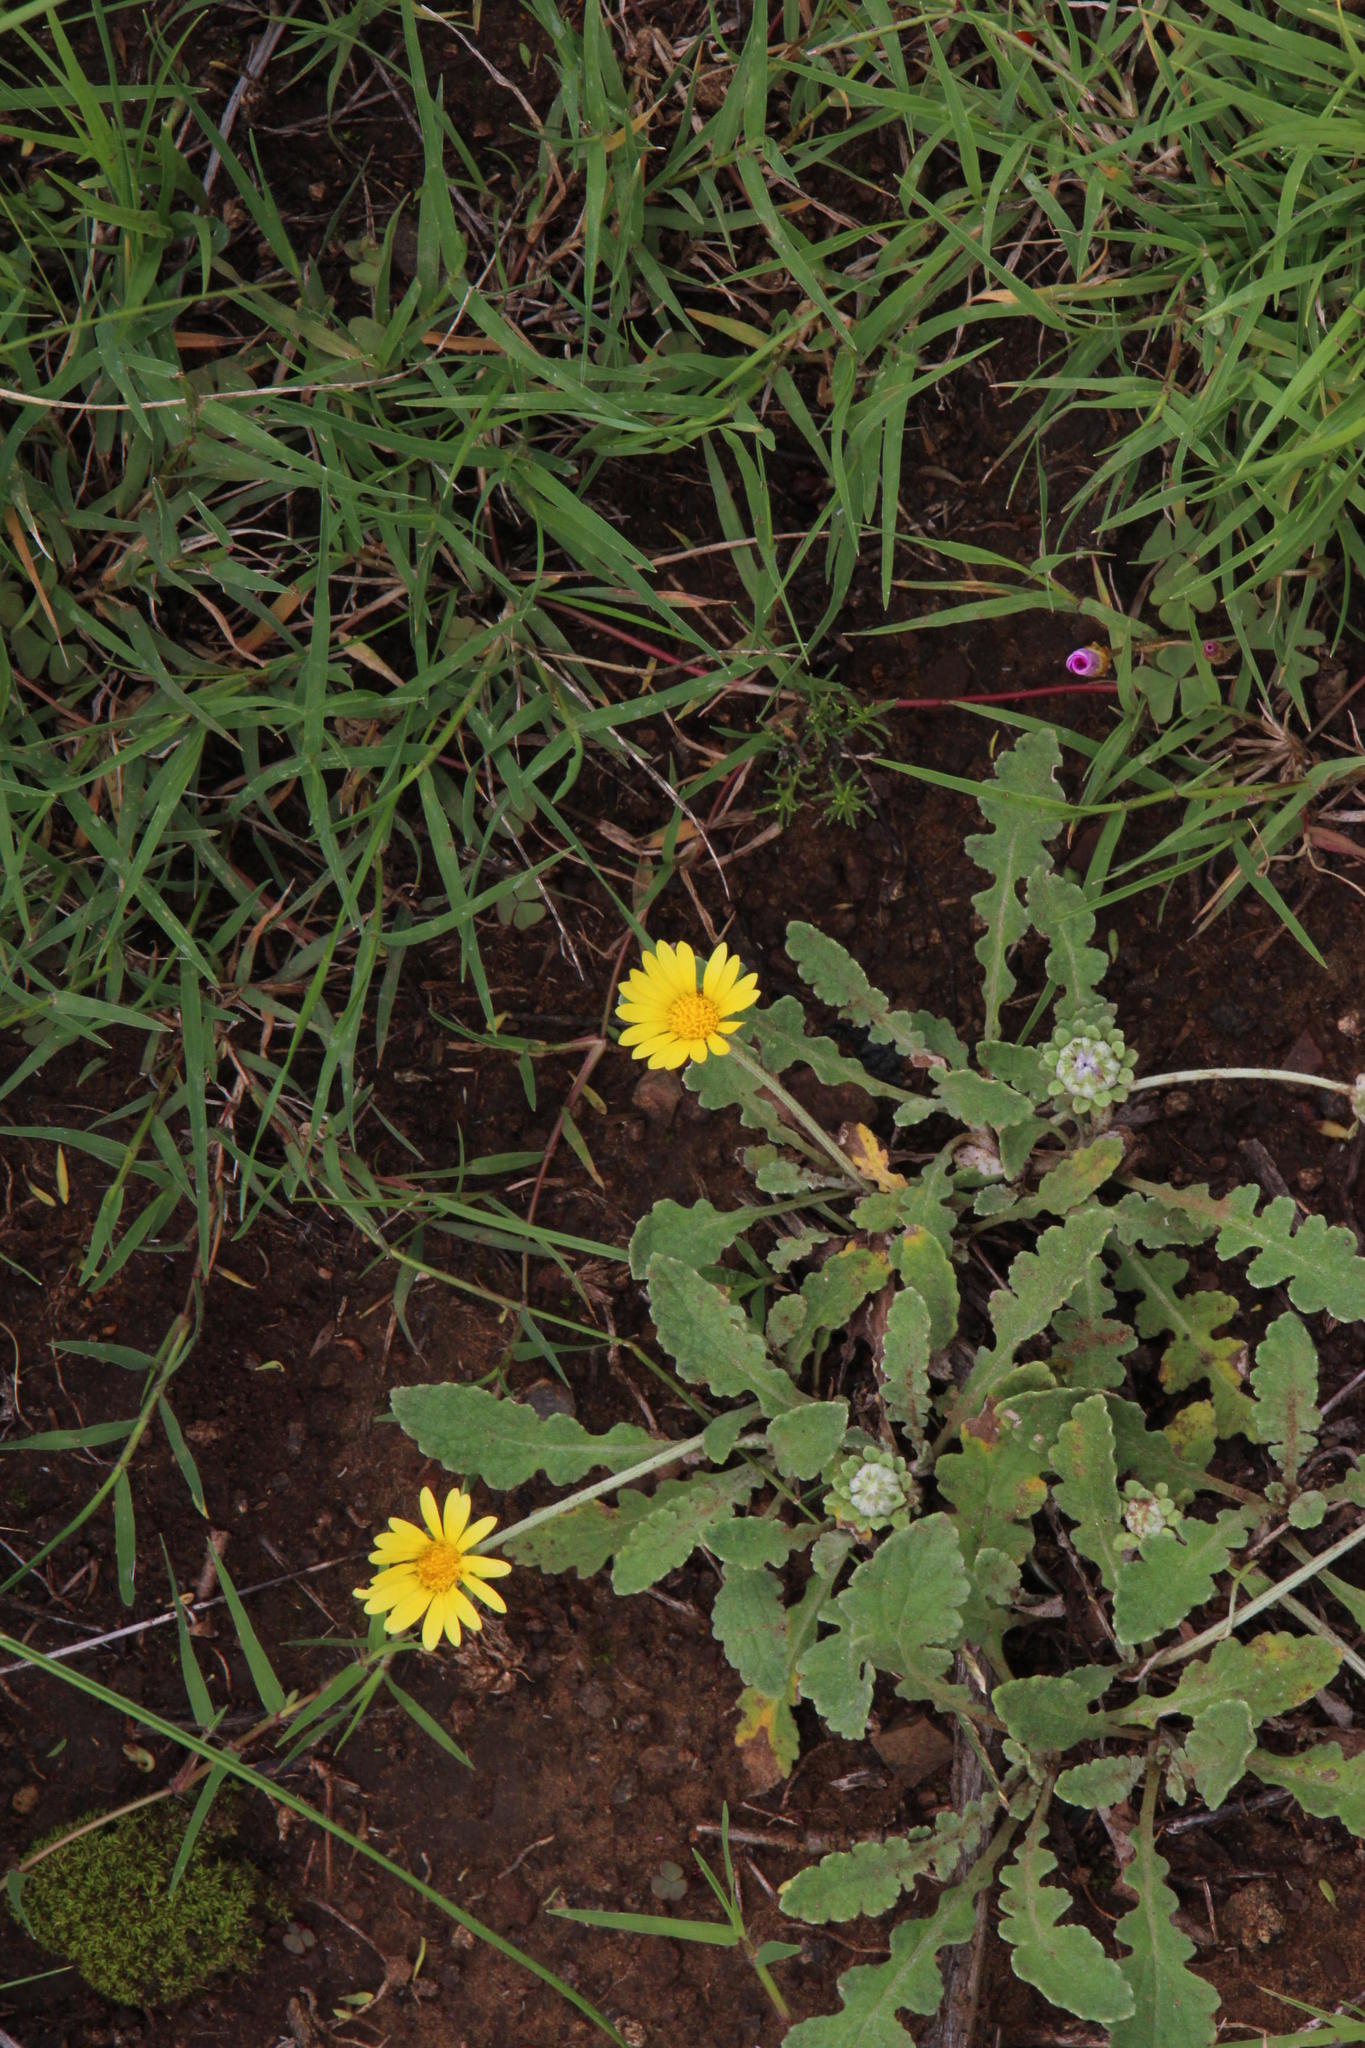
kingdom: Plantae
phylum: Tracheophyta
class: Magnoliopsida
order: Asterales
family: Asteraceae
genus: Arctotis
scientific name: Arctotis arctotoides
